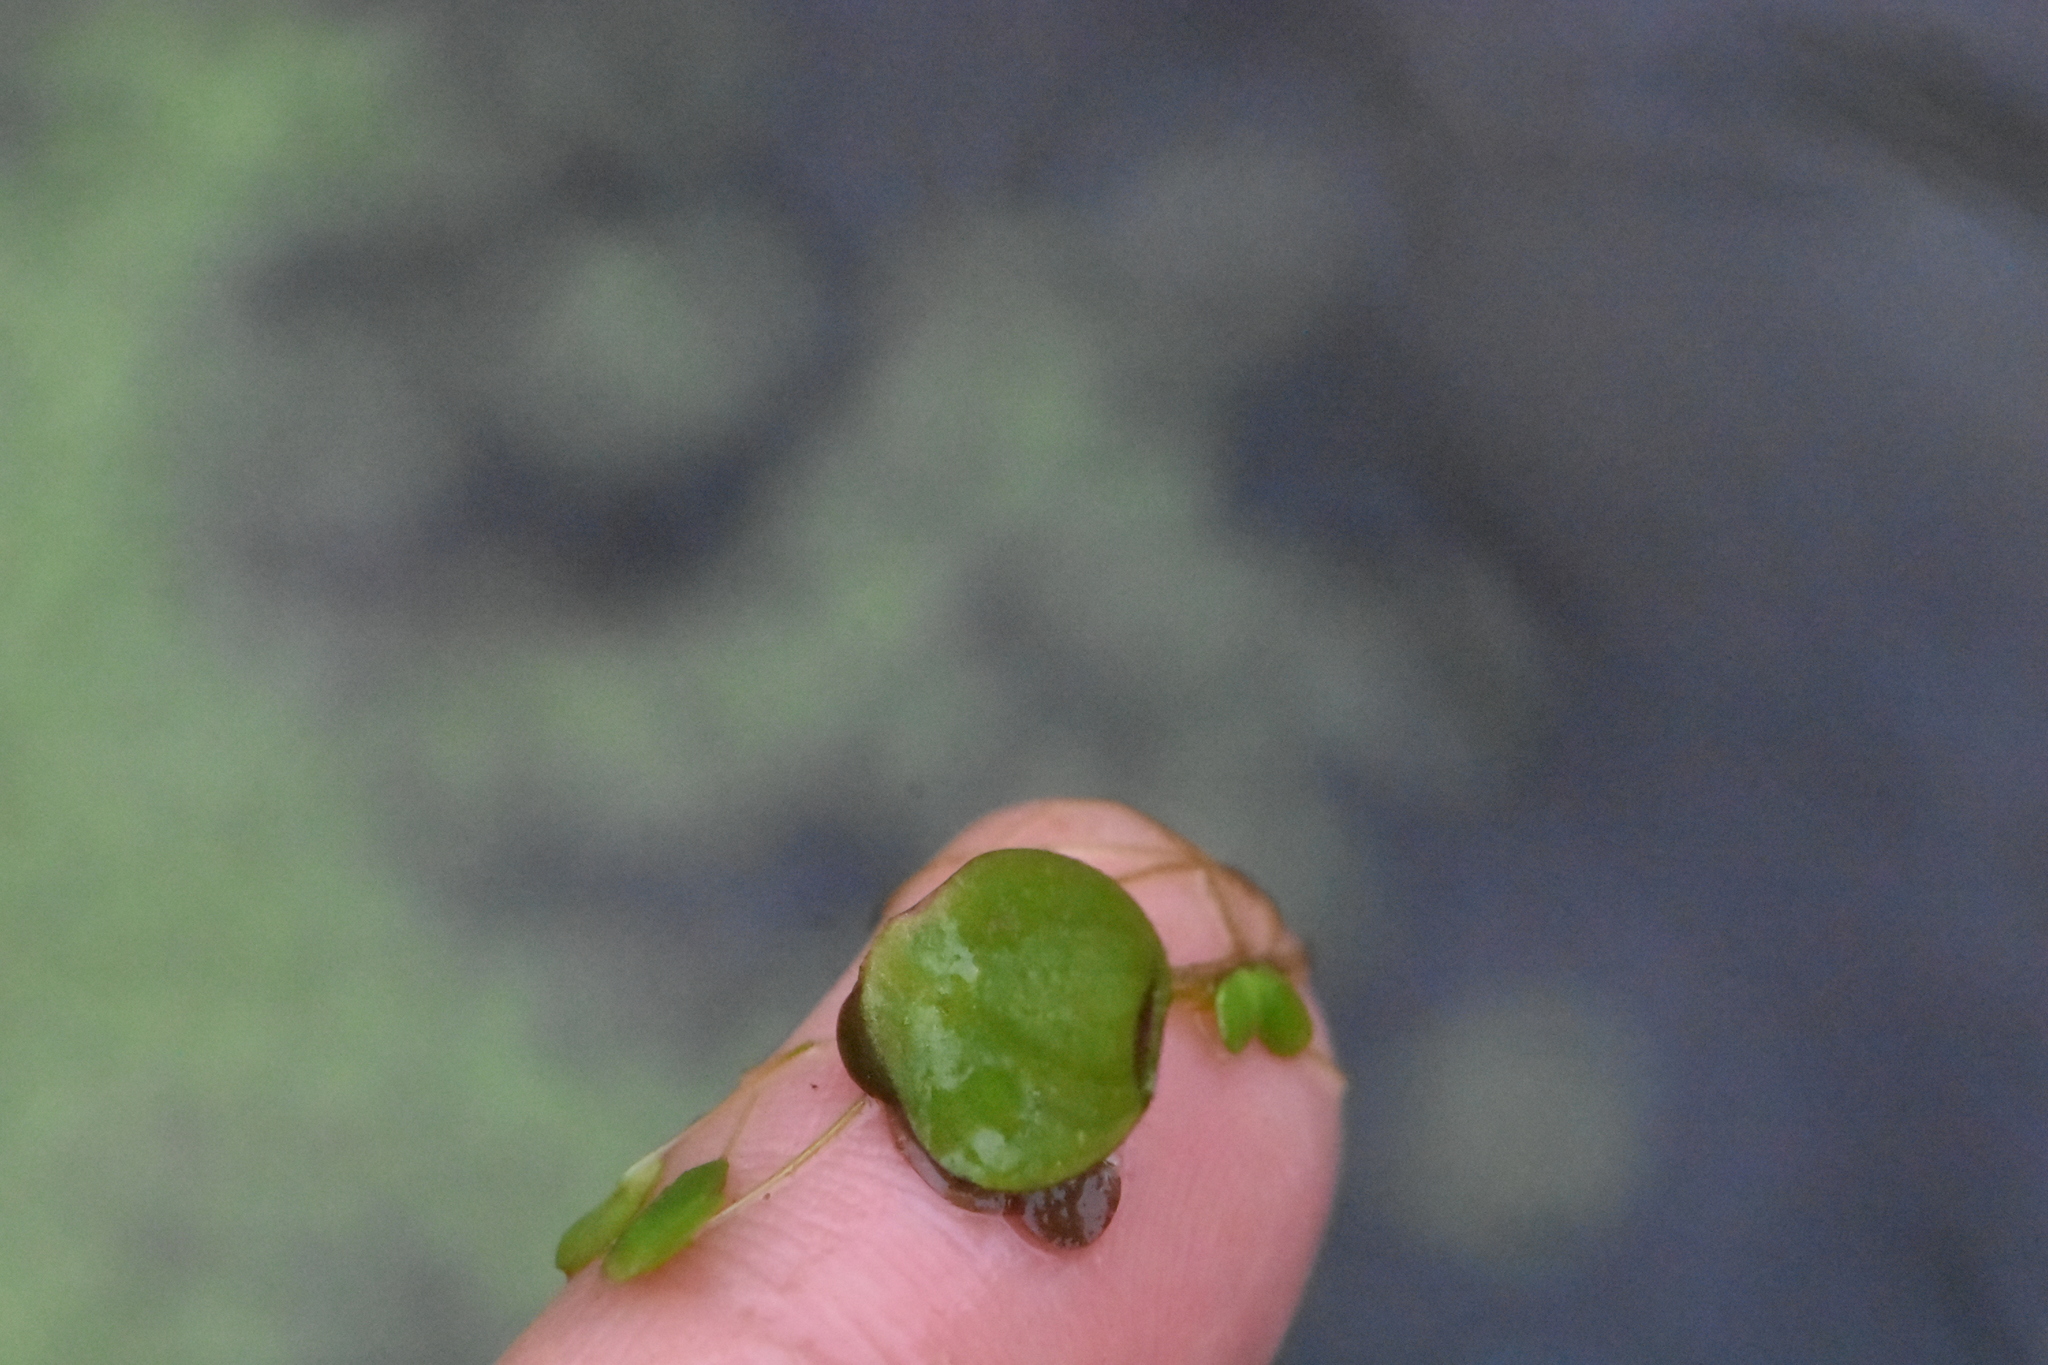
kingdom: Plantae
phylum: Tracheophyta
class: Liliopsida
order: Alismatales
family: Araceae
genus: Spirodela
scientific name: Spirodela polyrhiza
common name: Great duckweed
